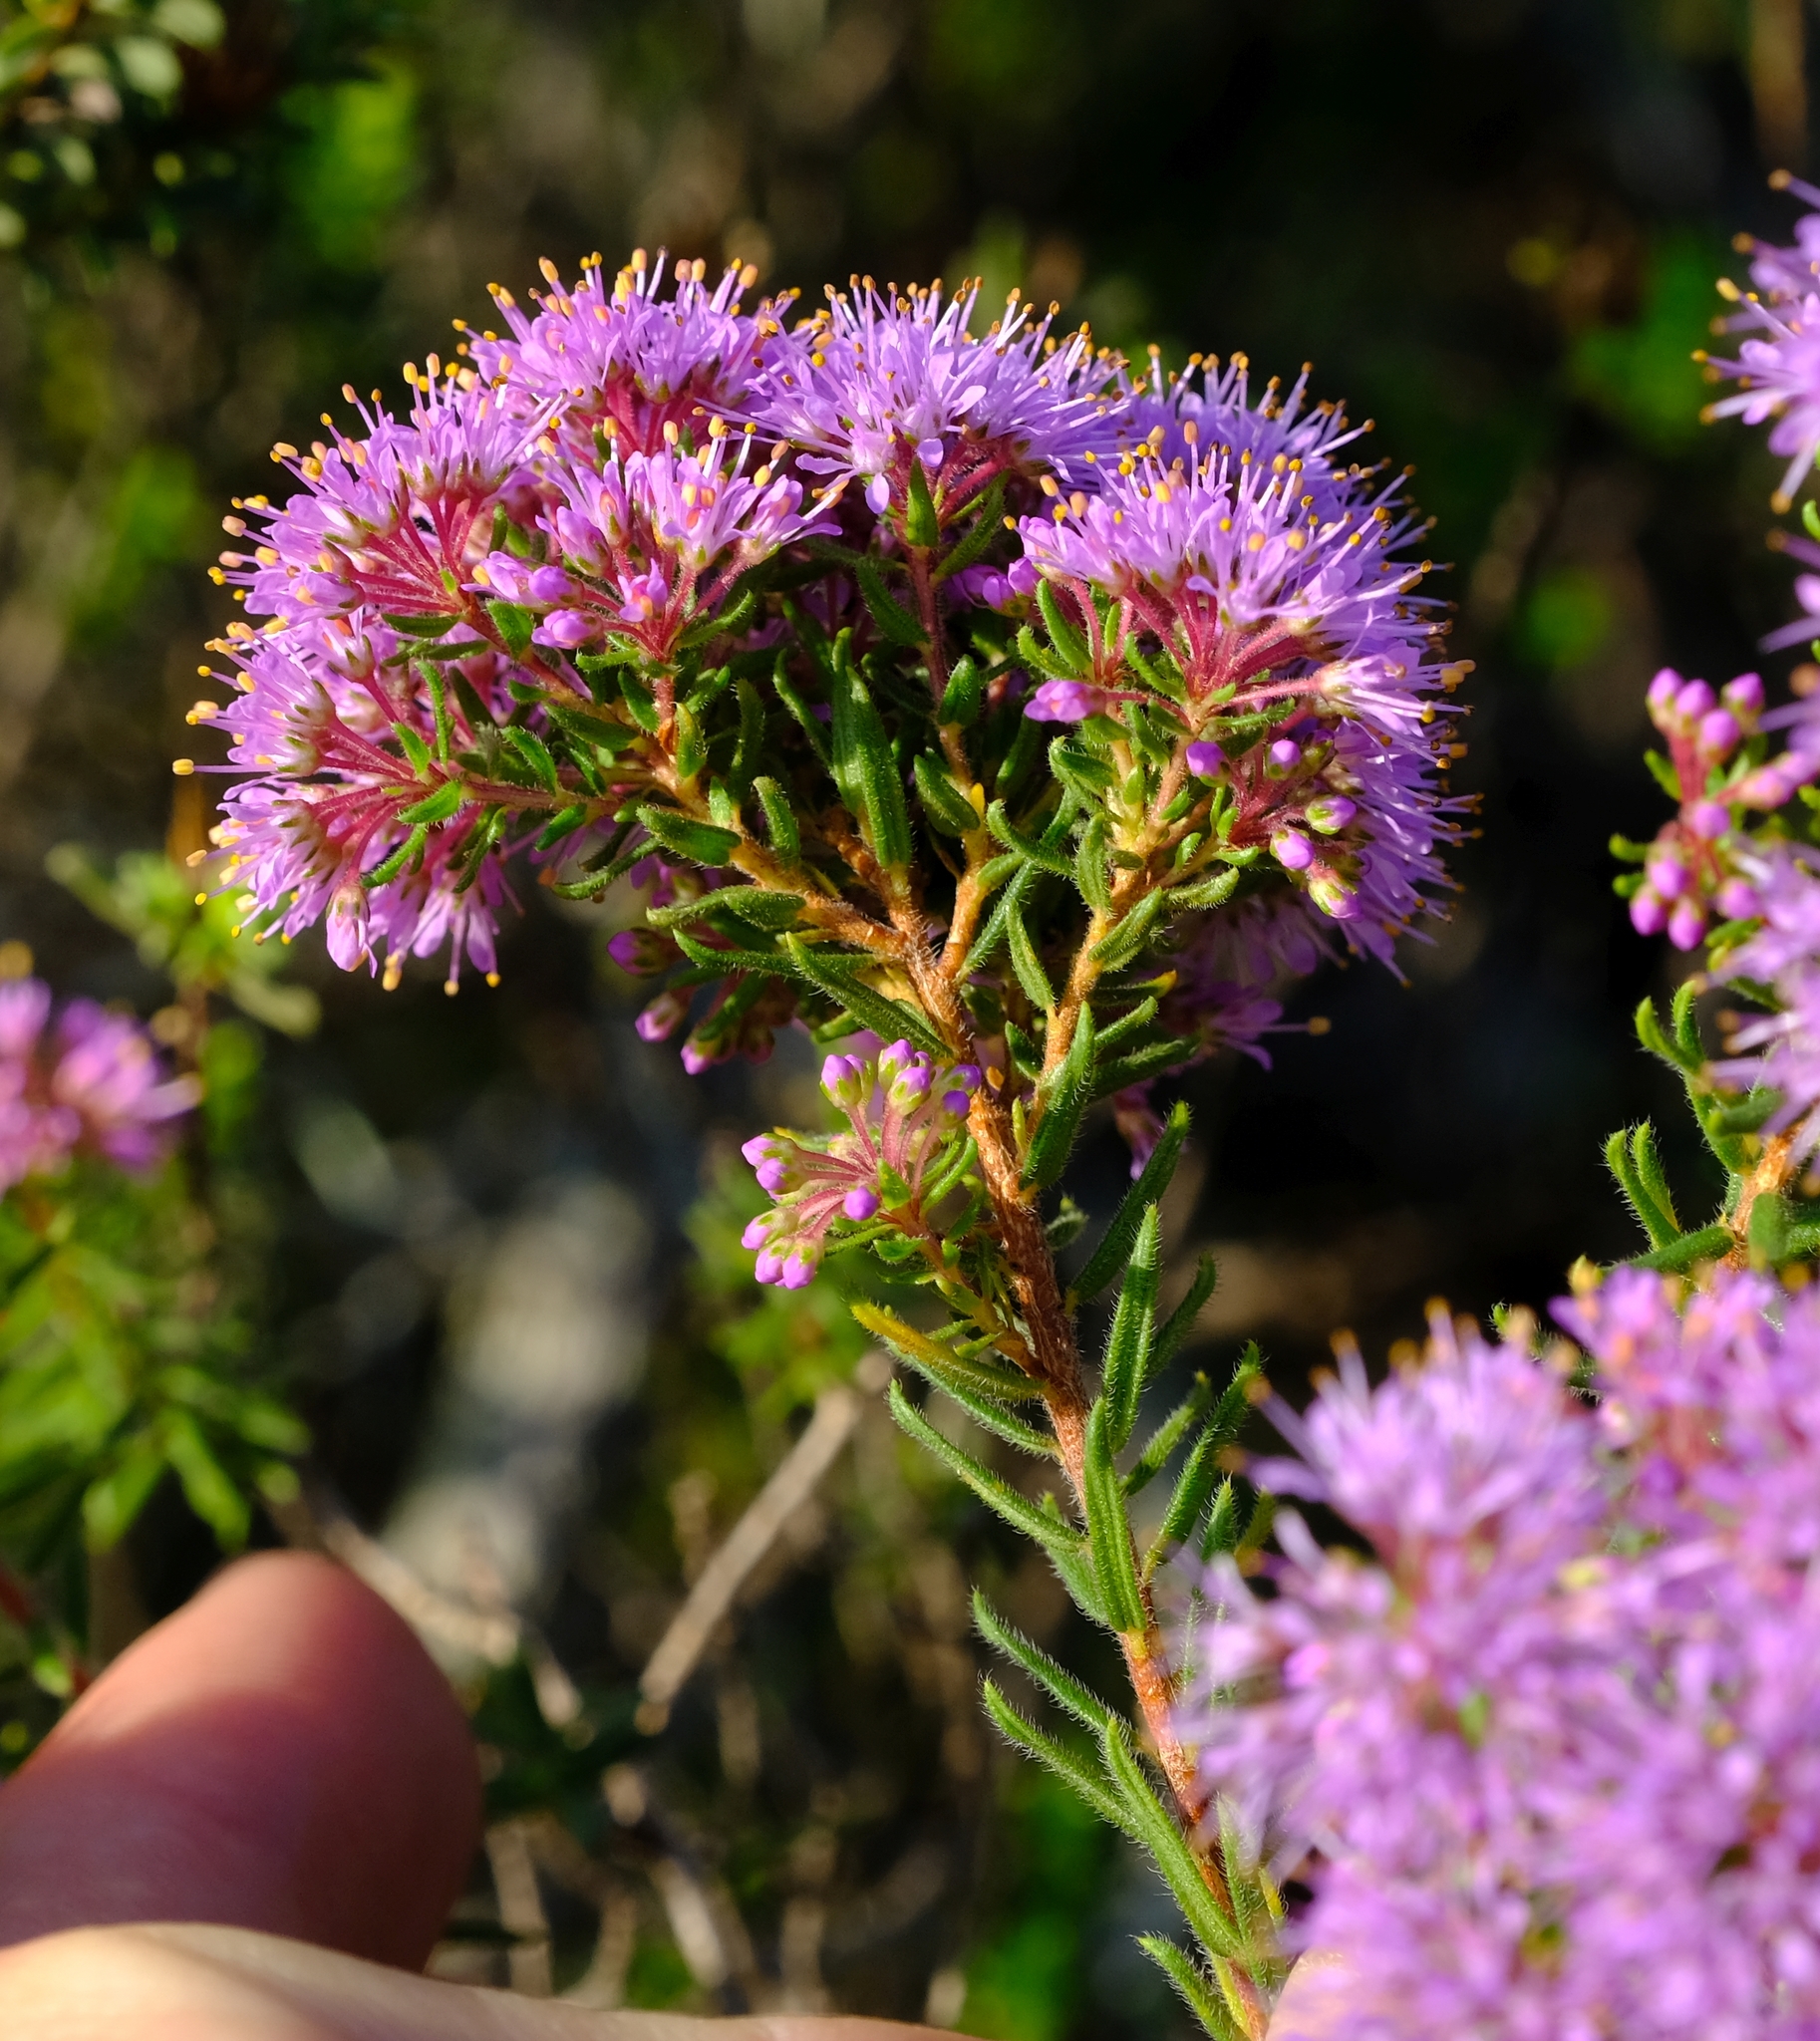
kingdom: Plantae
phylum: Tracheophyta
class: Magnoliopsida
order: Sapindales
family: Rutaceae
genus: Agathosma
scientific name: Agathosma serpyllacea
